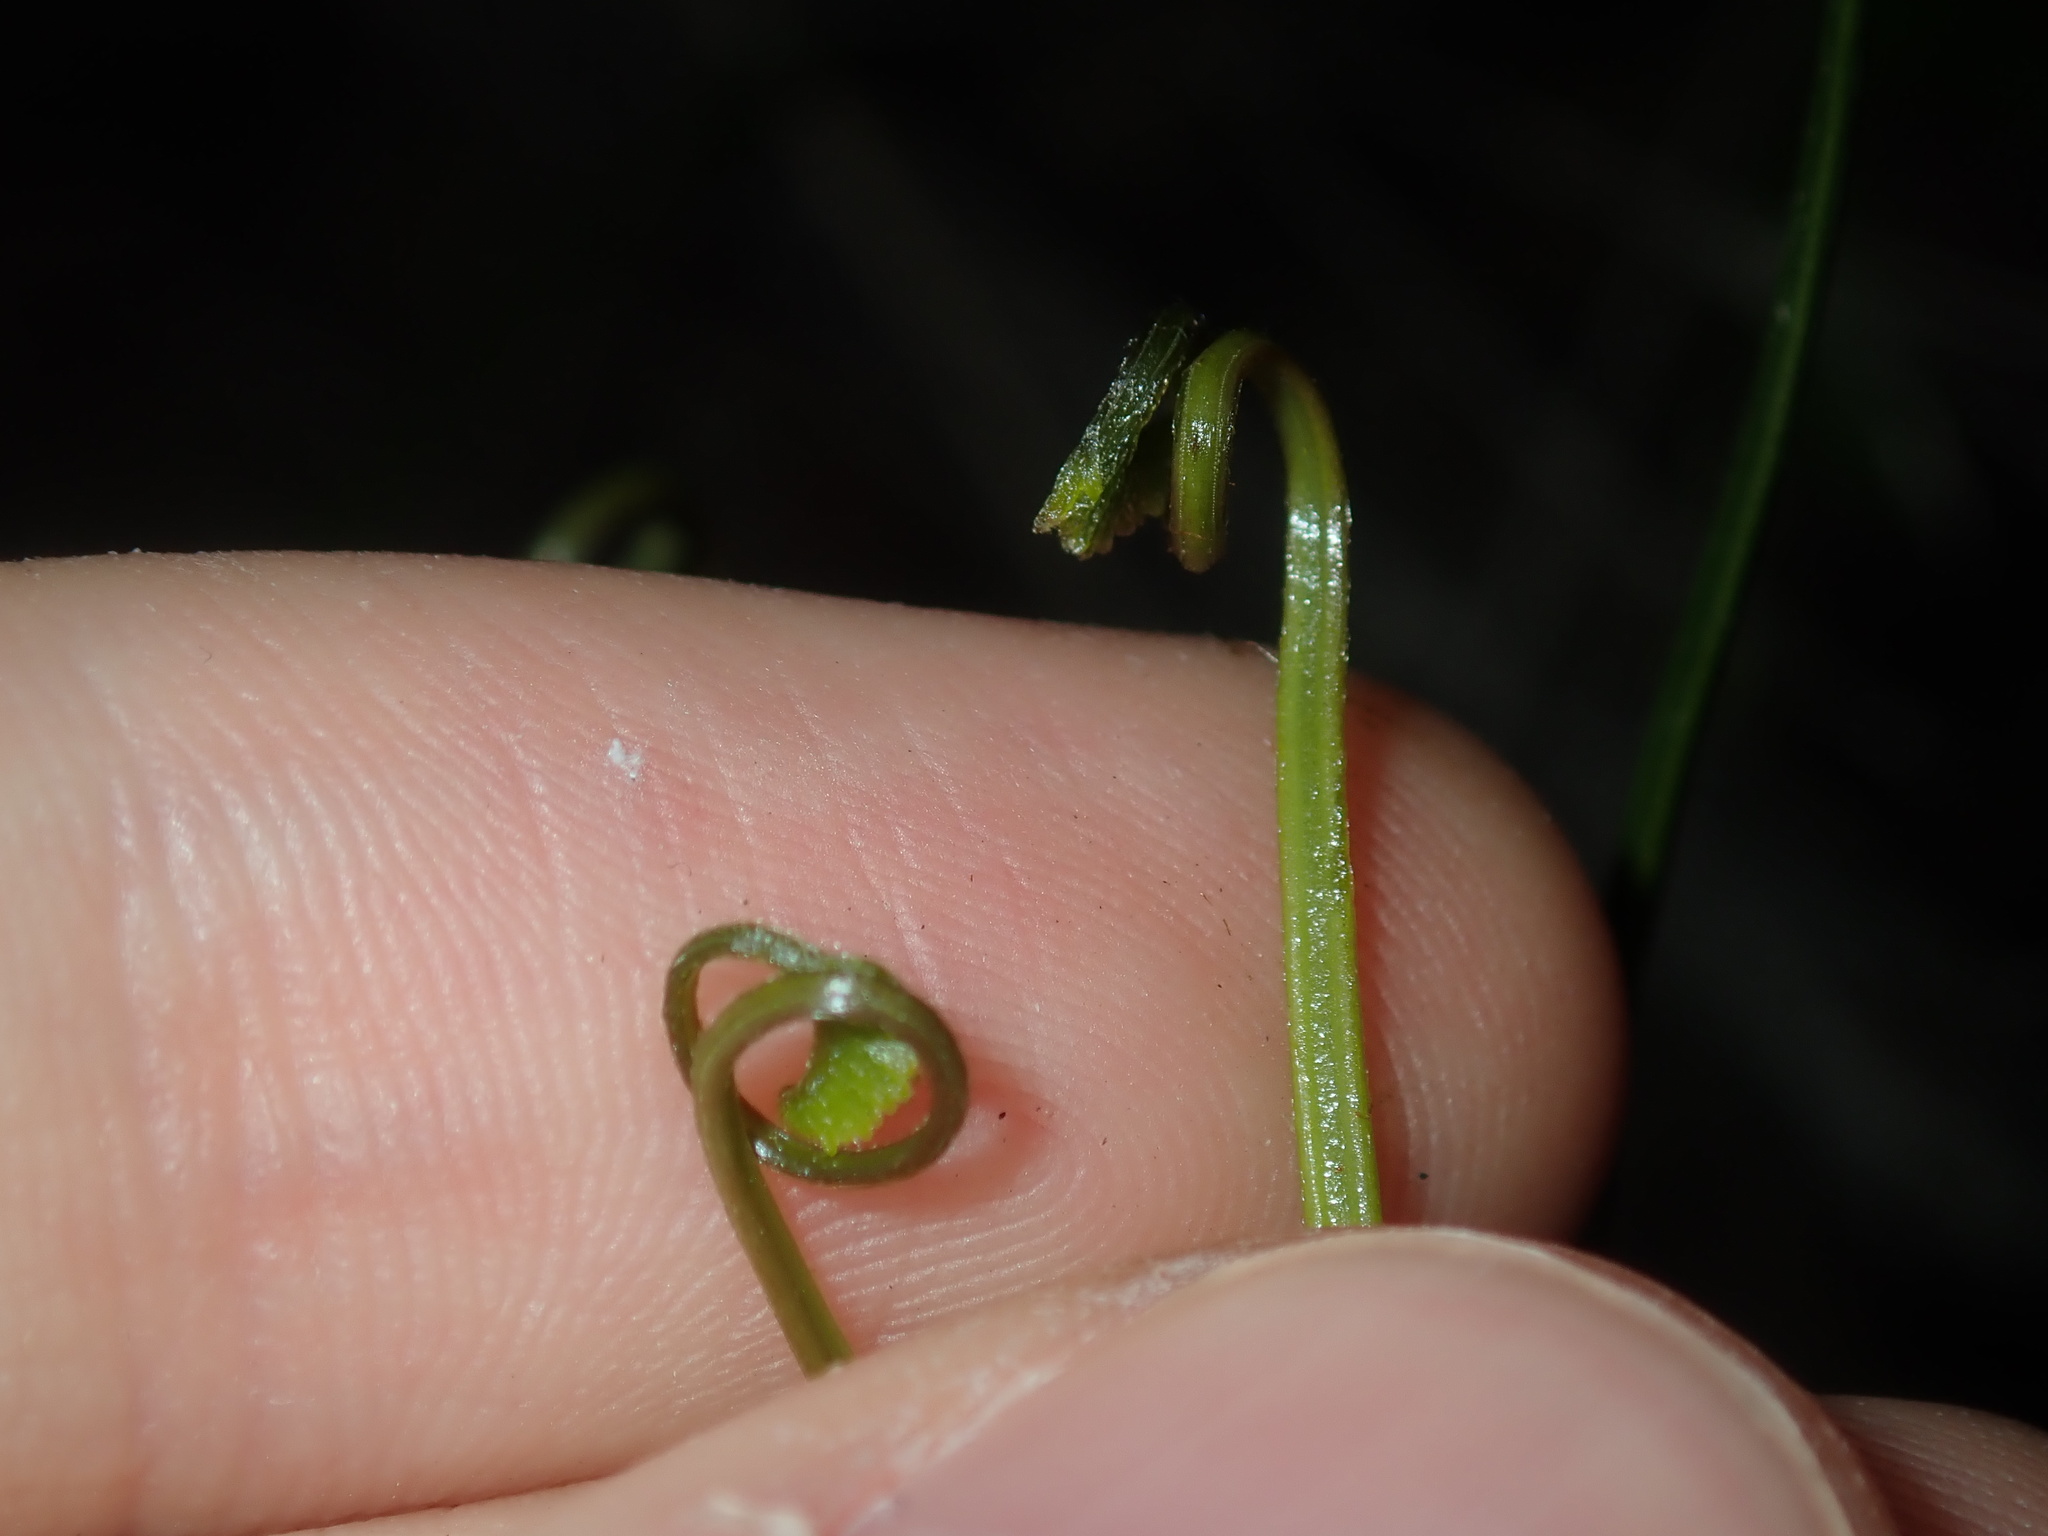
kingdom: Plantae
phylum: Tracheophyta
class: Polypodiopsida
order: Schizaeales
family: Schizaeaceae
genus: Schizaea
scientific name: Schizaea bifida
